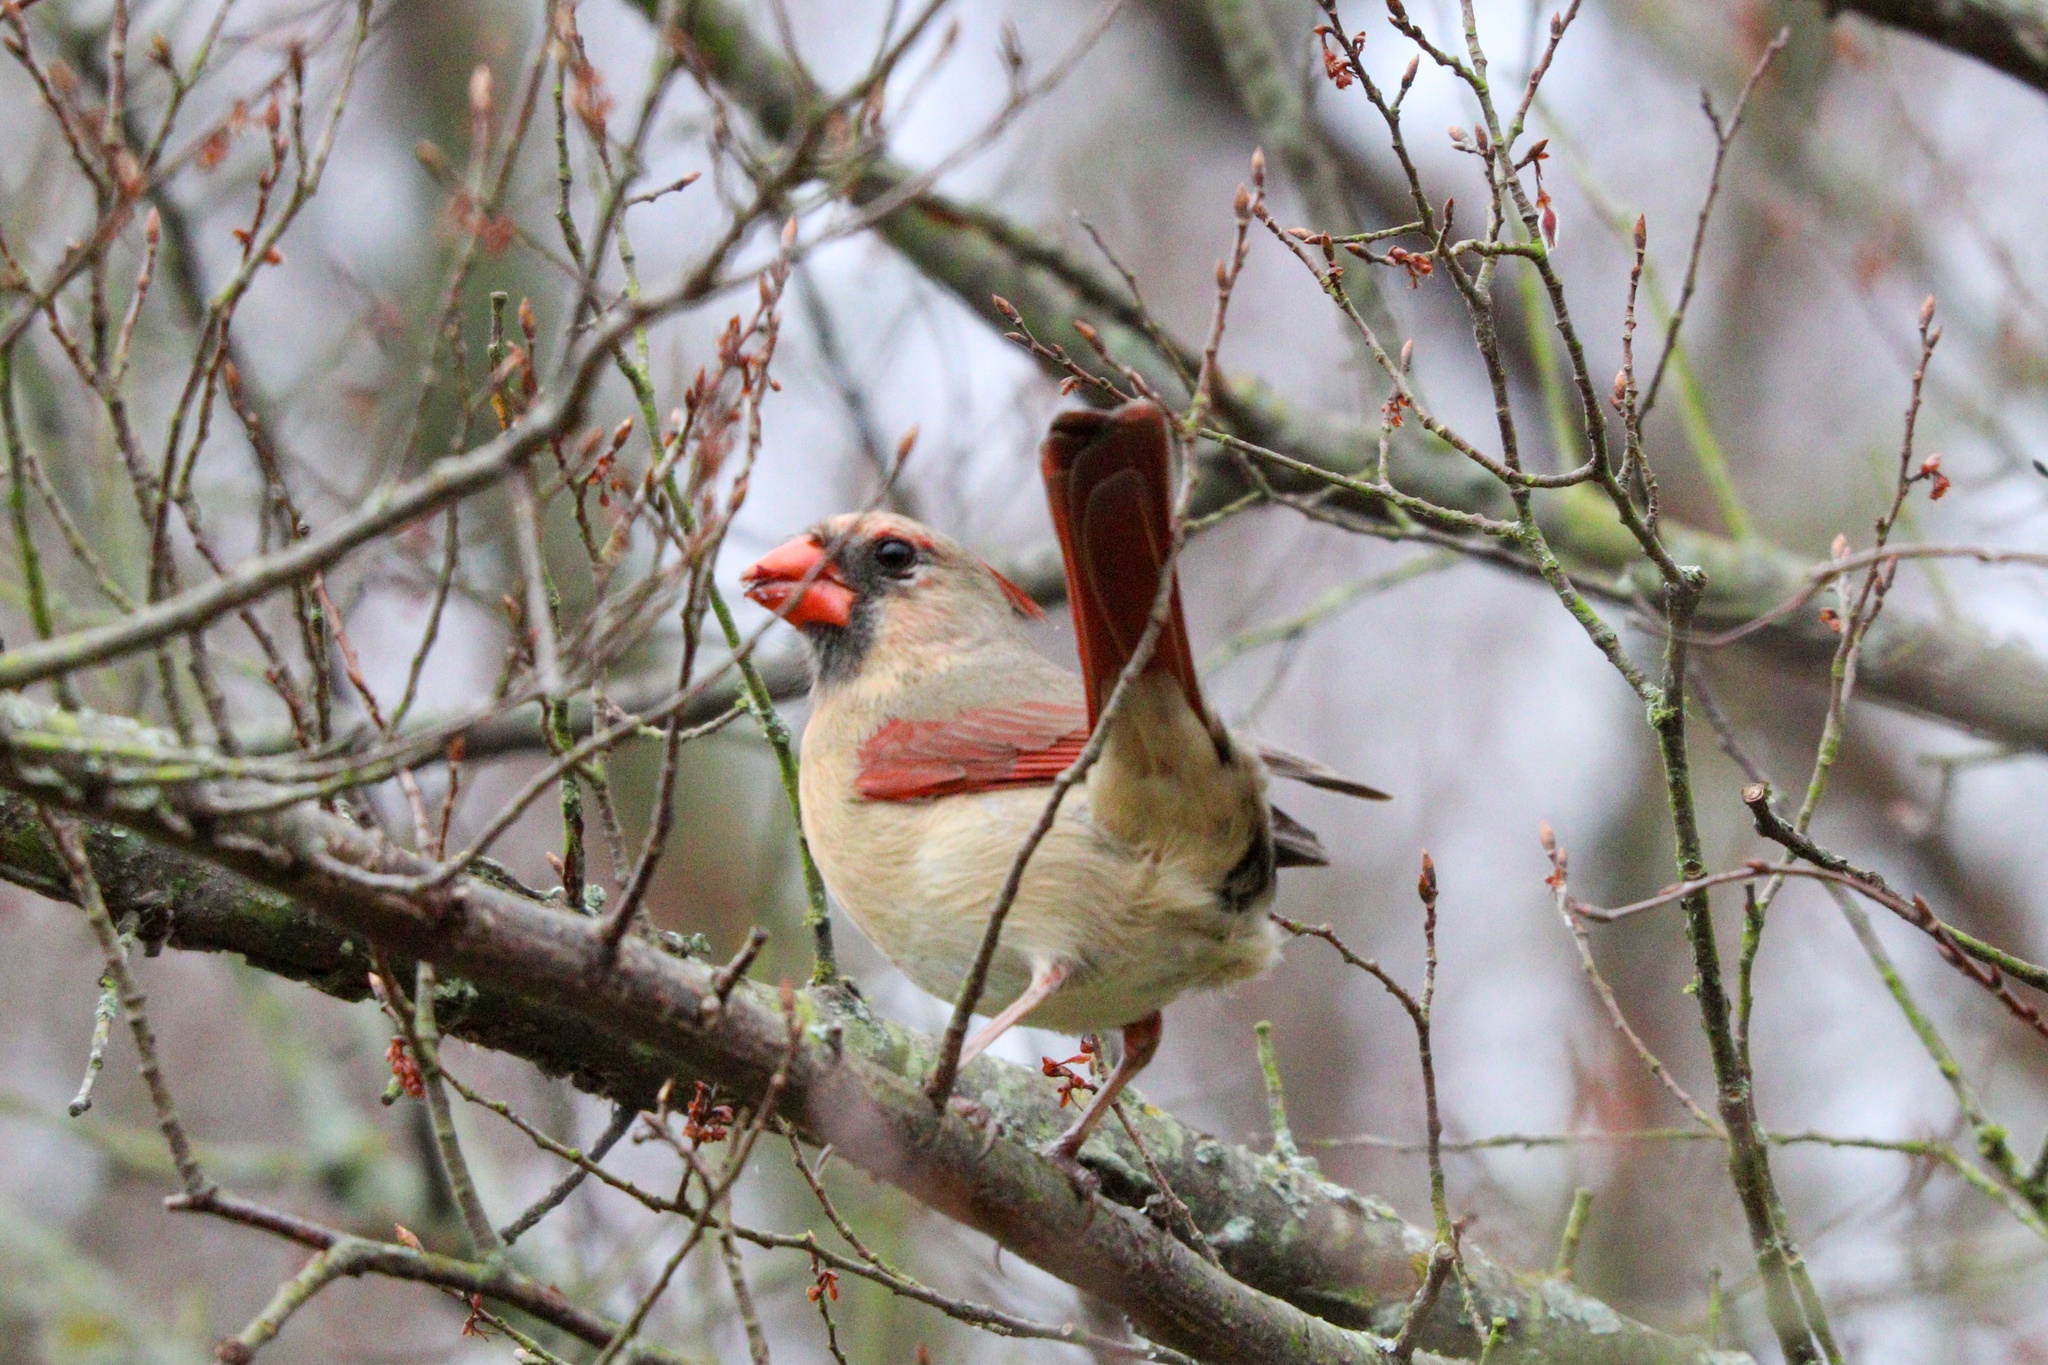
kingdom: Animalia
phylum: Chordata
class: Aves
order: Passeriformes
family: Cardinalidae
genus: Cardinalis
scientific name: Cardinalis cardinalis
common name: Northern cardinal
